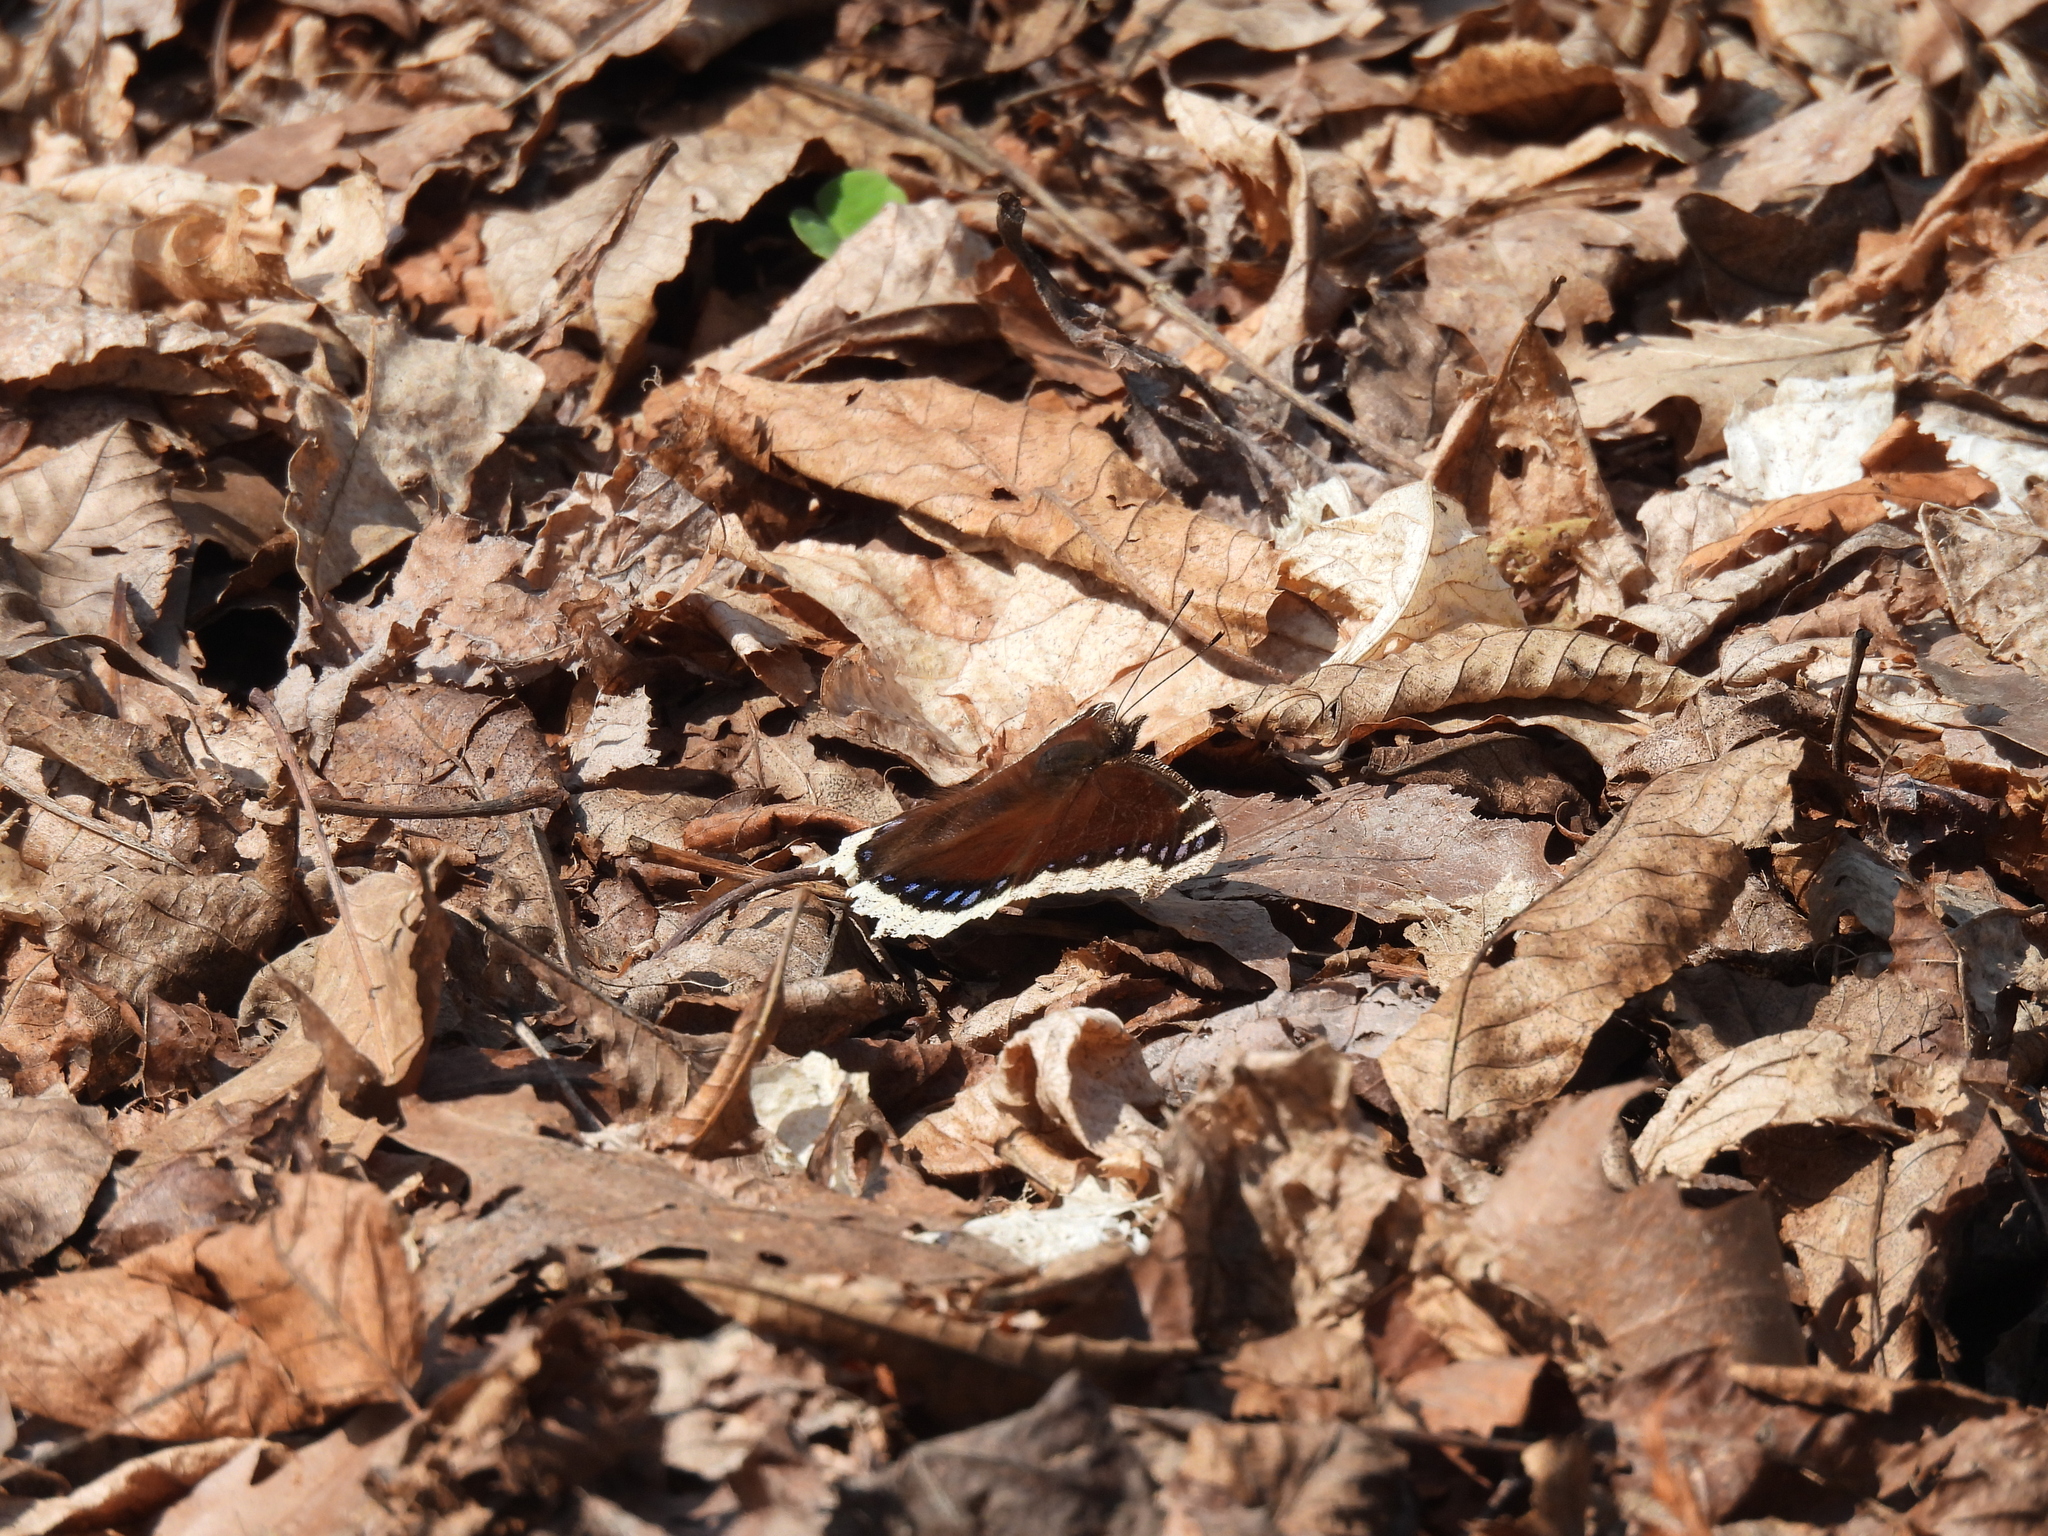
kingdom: Animalia
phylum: Arthropoda
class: Insecta
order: Lepidoptera
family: Nymphalidae
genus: Nymphalis
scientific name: Nymphalis antiopa
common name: Camberwell beauty
